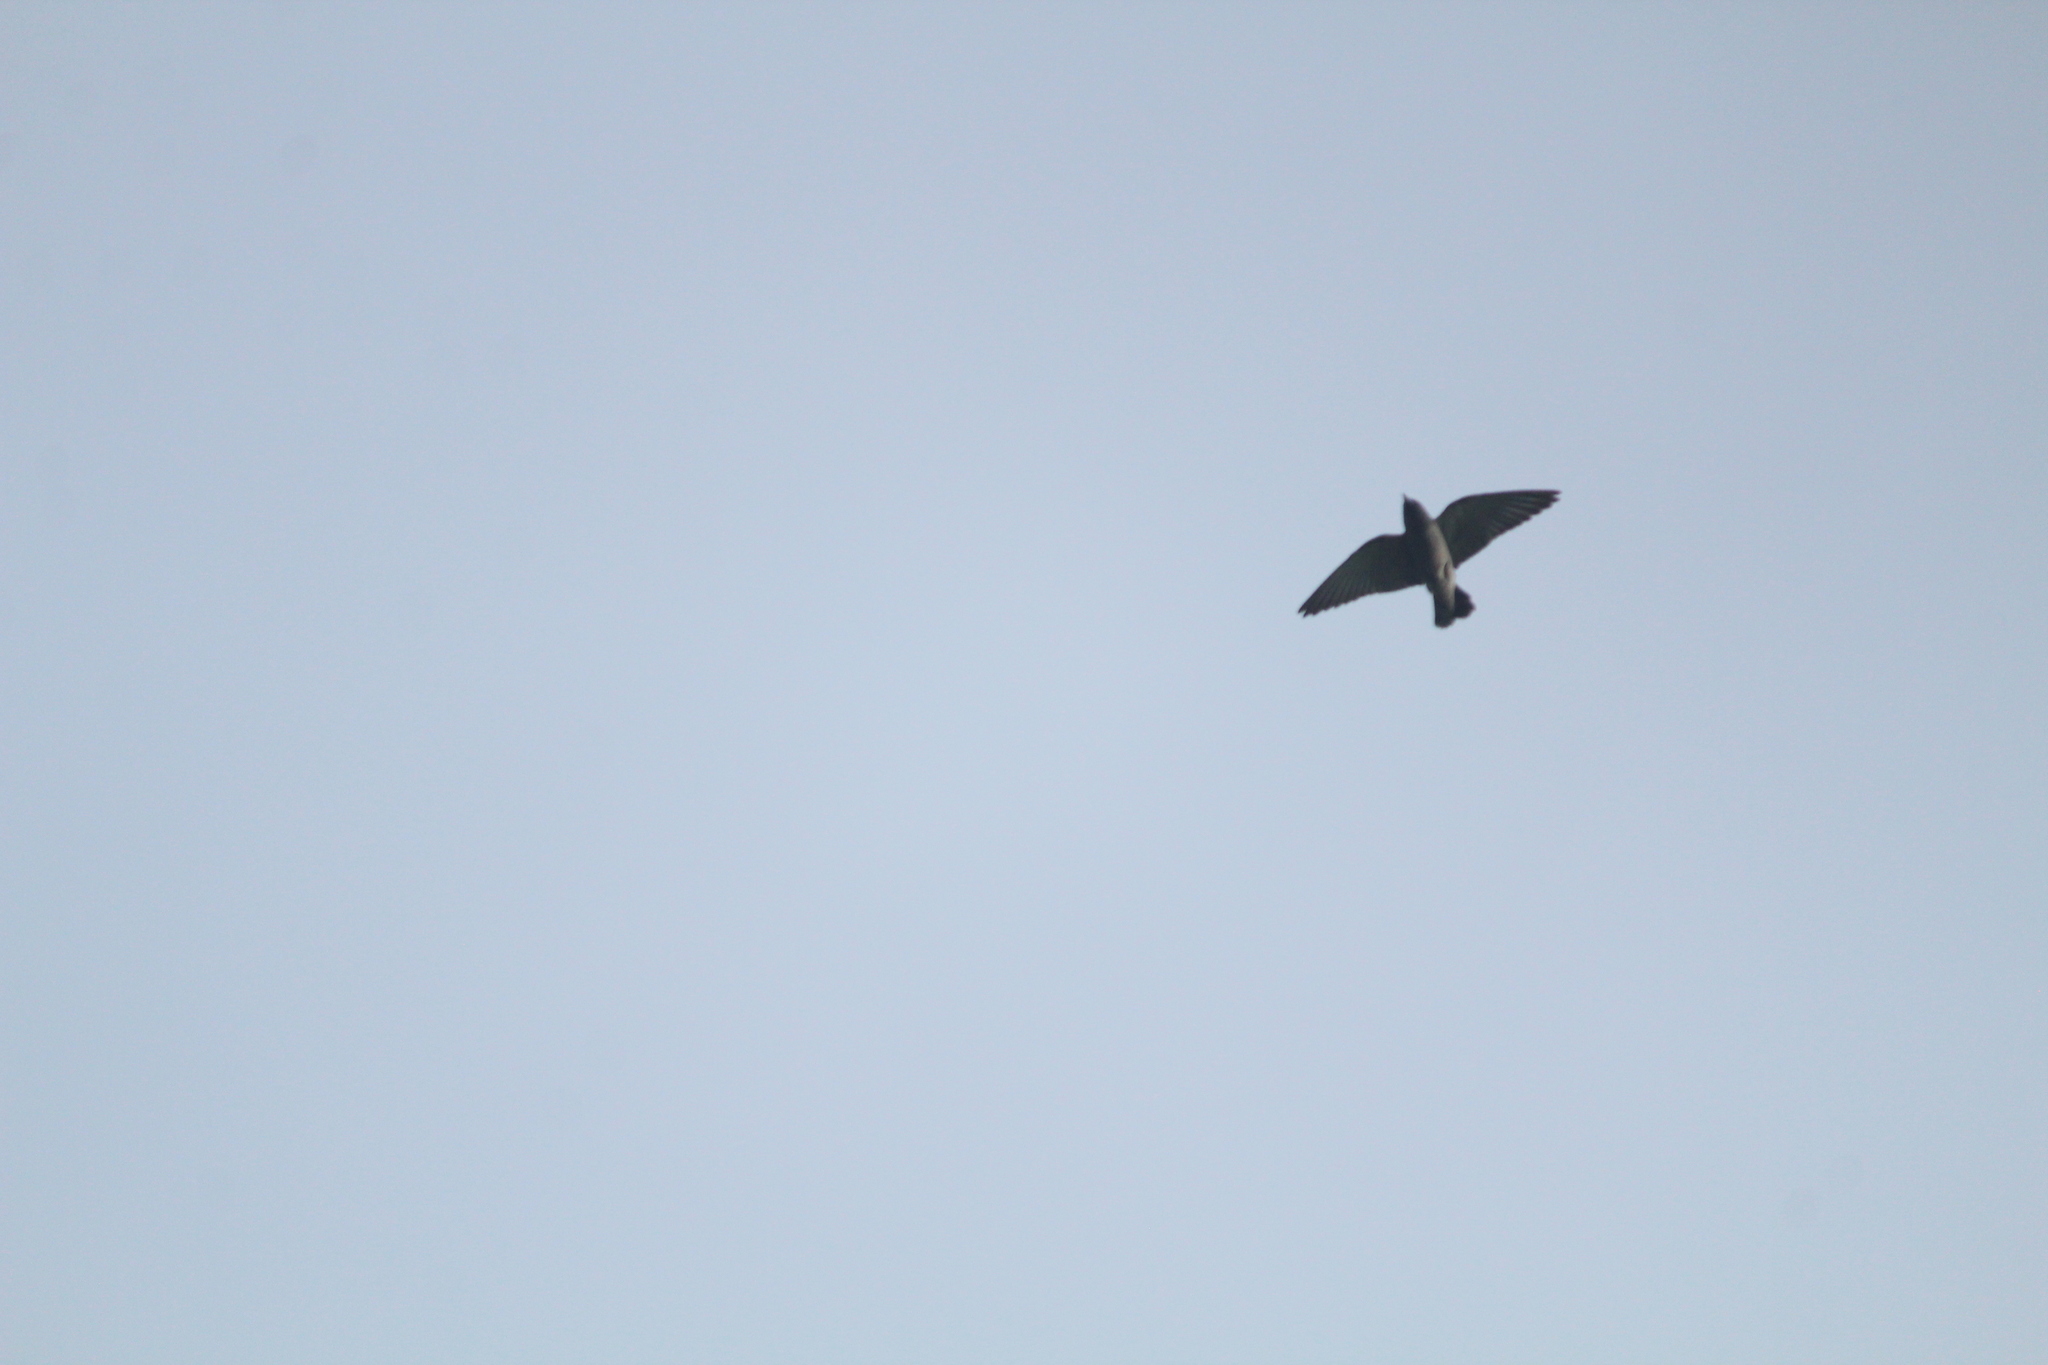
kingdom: Animalia
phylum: Chordata
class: Aves
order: Passeriformes
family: Artamidae
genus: Artamus
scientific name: Artamus fuscus
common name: Ashy woodswallow
